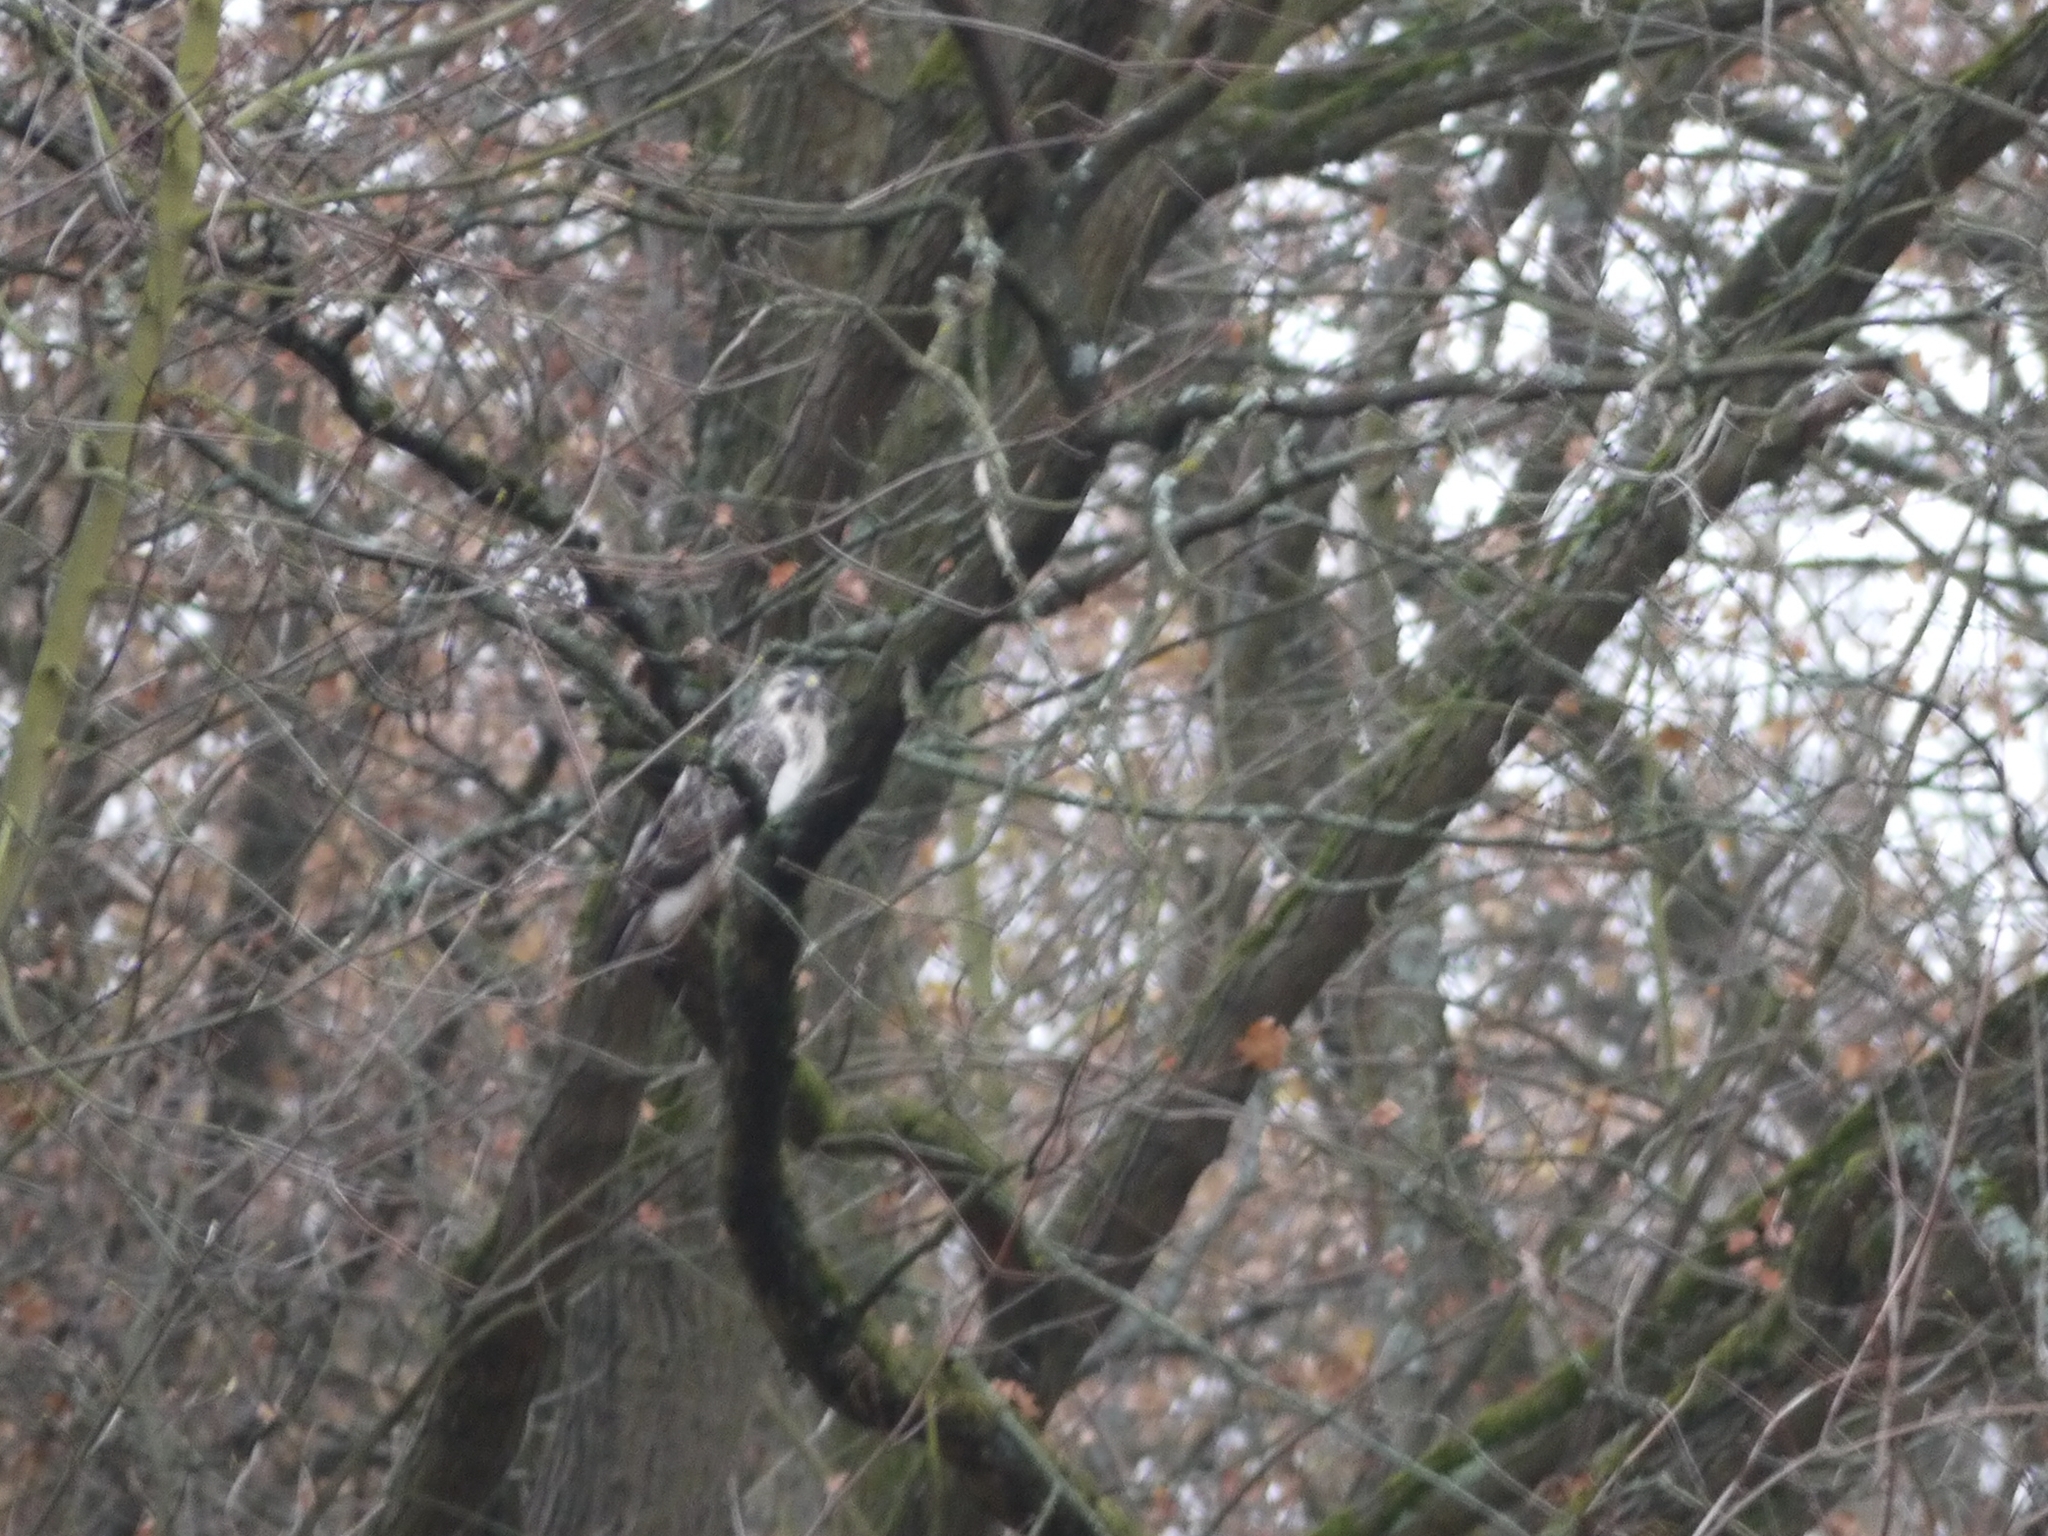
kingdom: Animalia
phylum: Chordata
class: Aves
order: Accipitriformes
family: Accipitridae
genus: Buteo
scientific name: Buteo buteo
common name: Common buzzard
